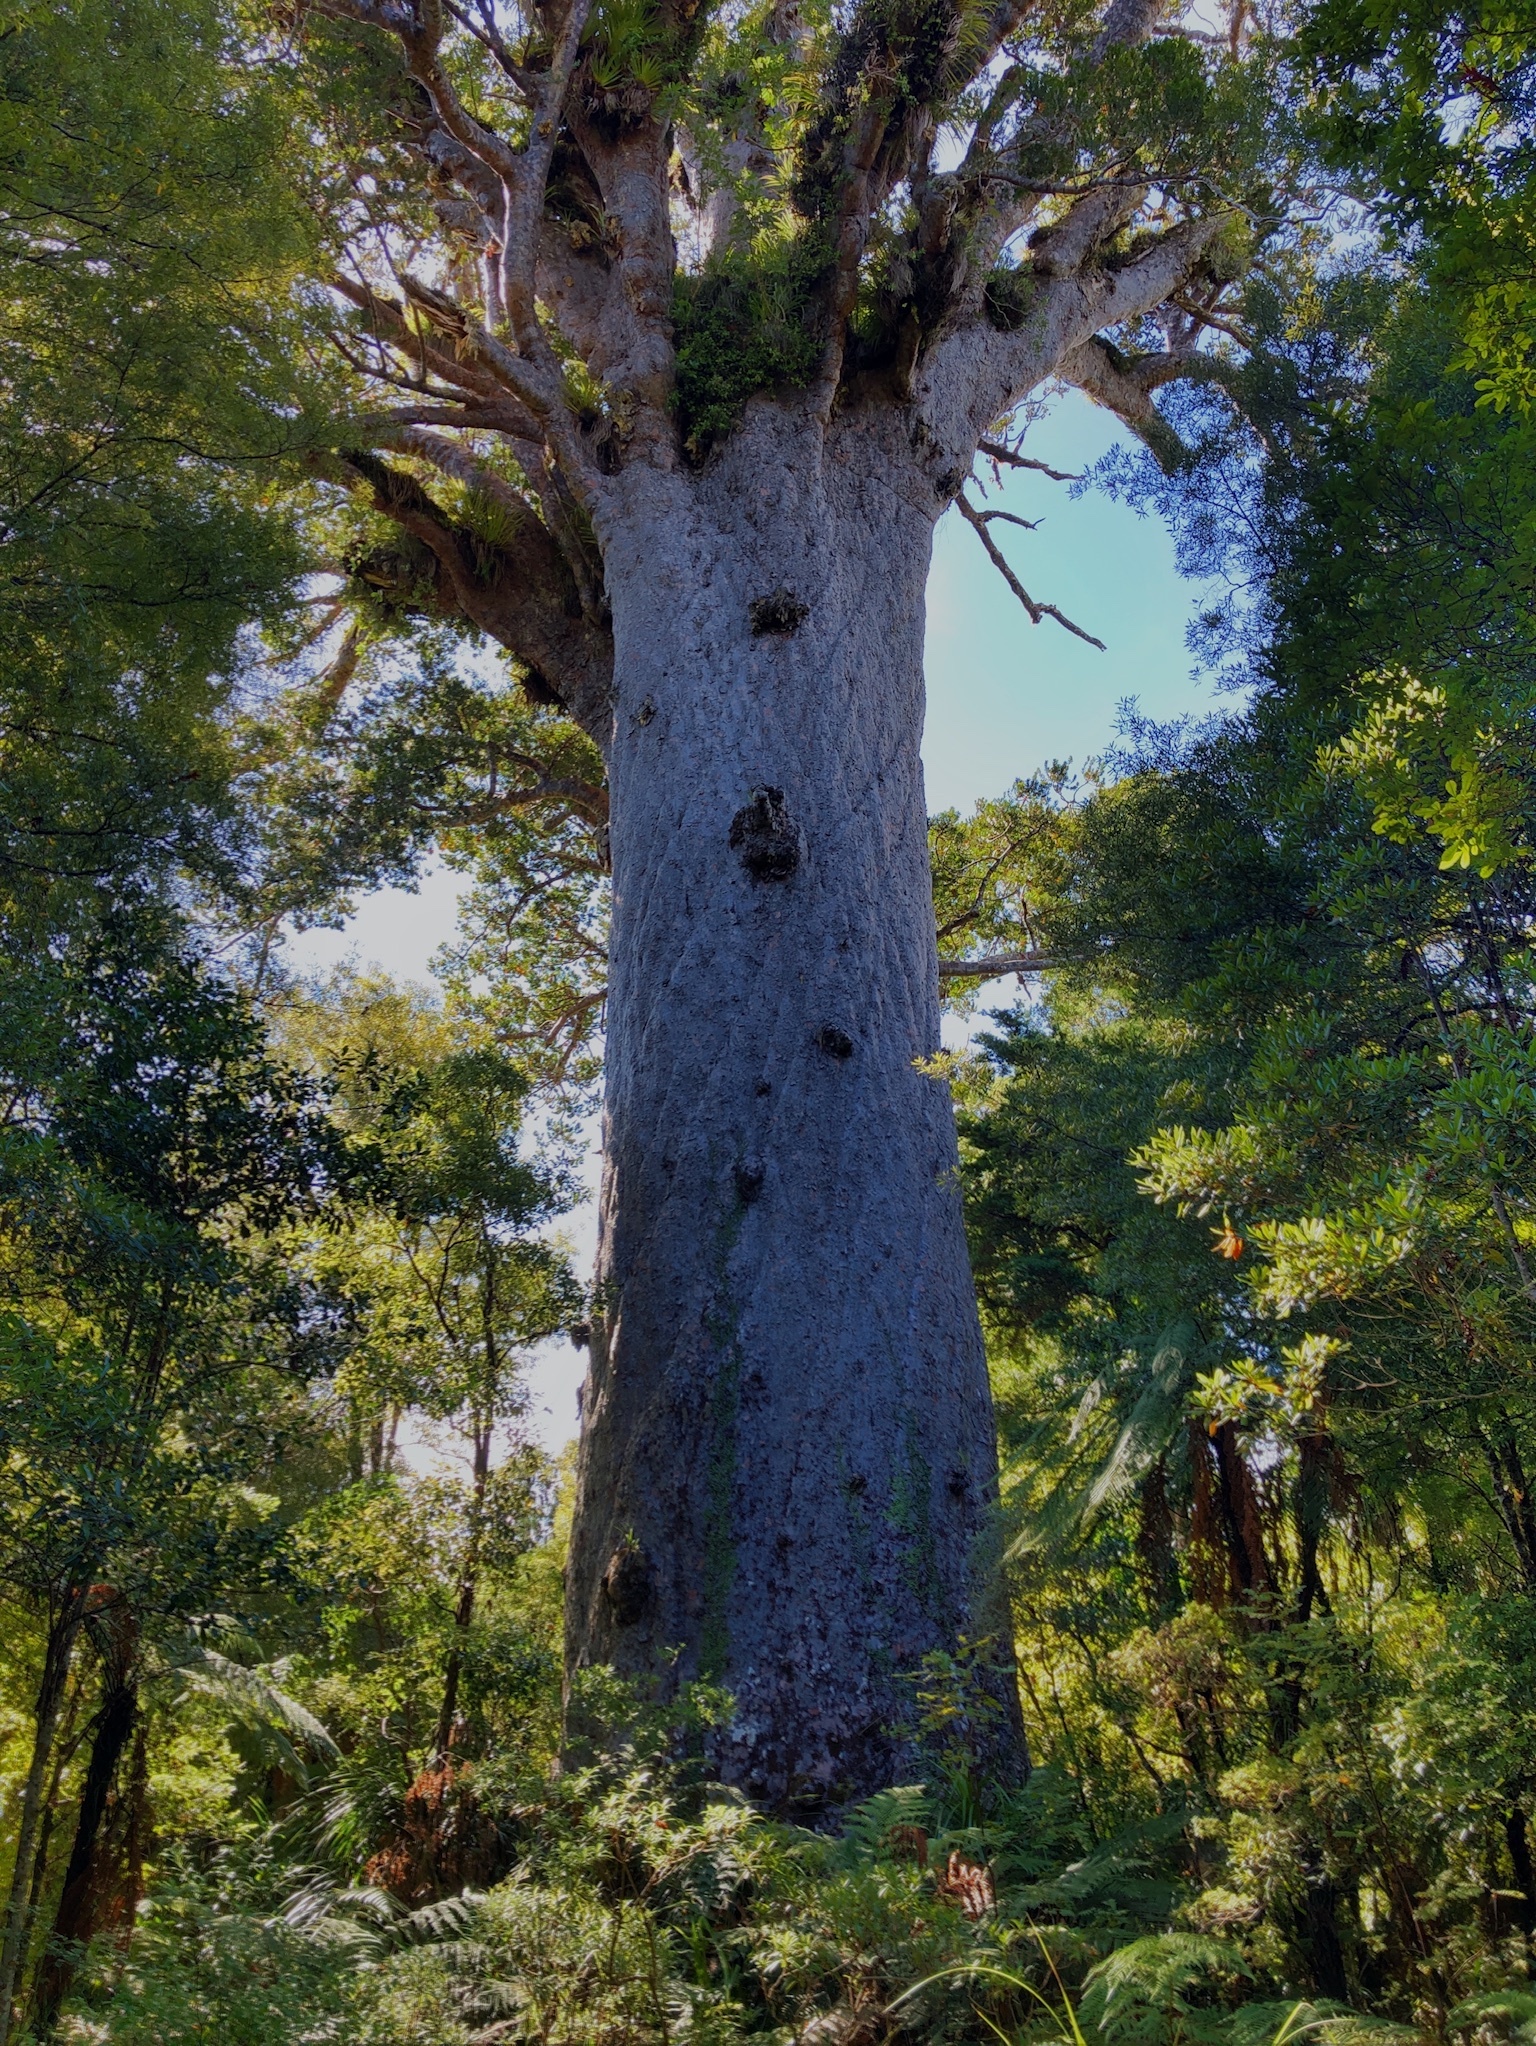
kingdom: Plantae
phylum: Tracheophyta
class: Pinopsida
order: Pinales
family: Araucariaceae
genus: Agathis
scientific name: Agathis australis
